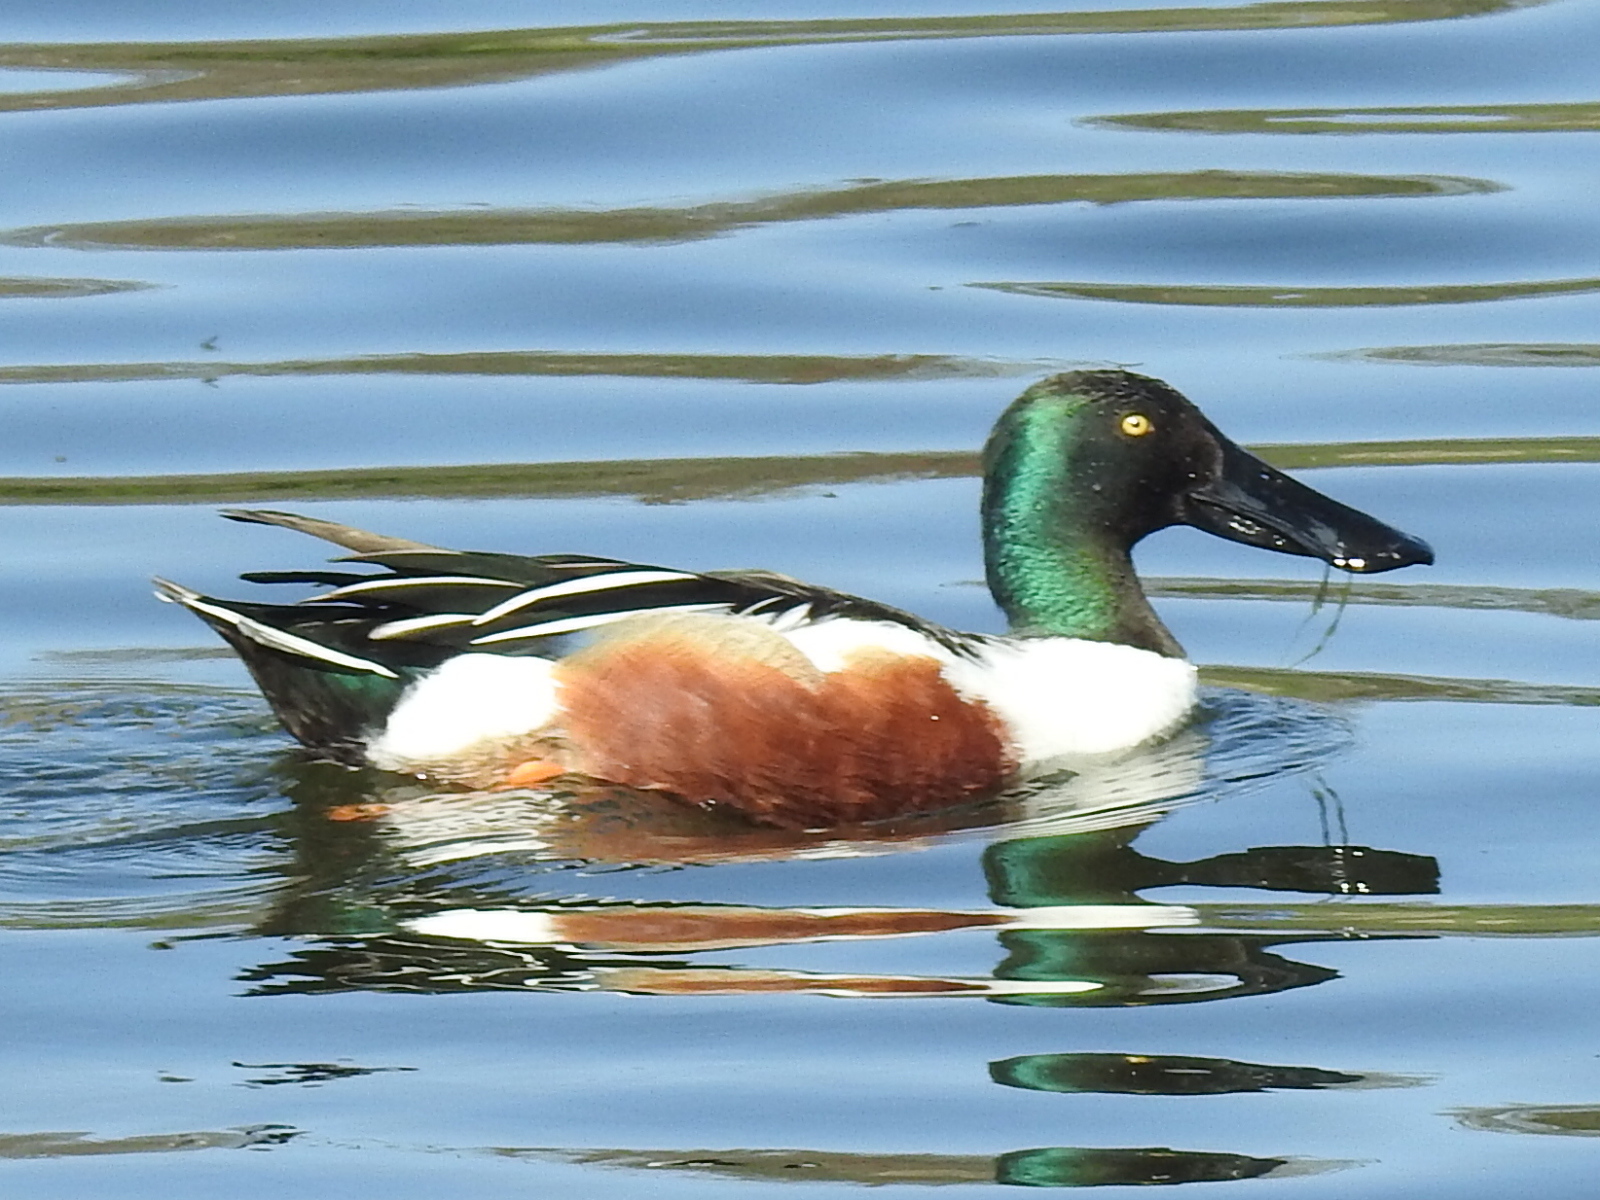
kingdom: Animalia
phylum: Chordata
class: Aves
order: Anseriformes
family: Anatidae
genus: Spatula
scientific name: Spatula clypeata
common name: Northern shoveler
